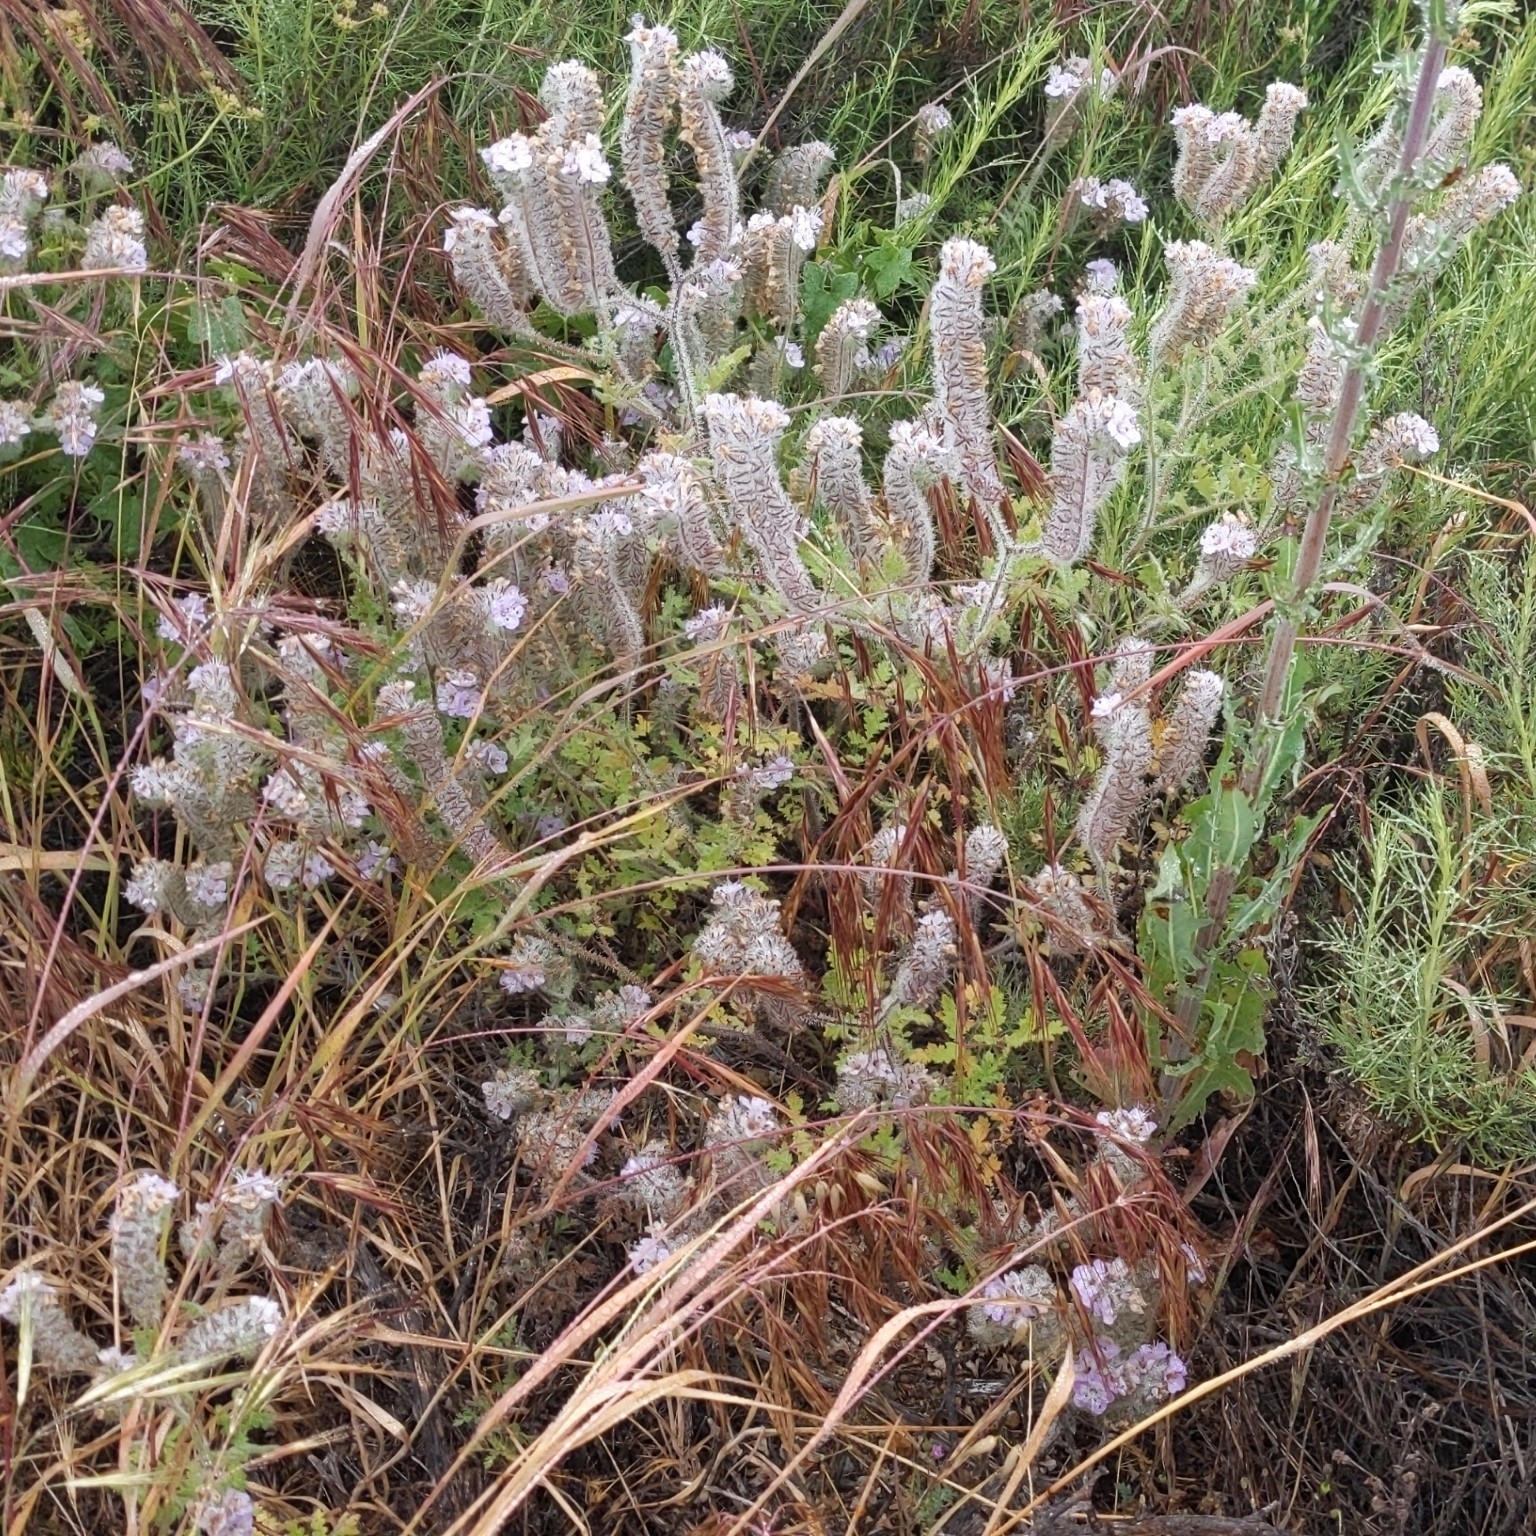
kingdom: Plantae
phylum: Tracheophyta
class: Magnoliopsida
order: Boraginales
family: Hydrophyllaceae
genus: Phacelia
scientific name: Phacelia cicutaria
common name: Caterpillar phacelia
